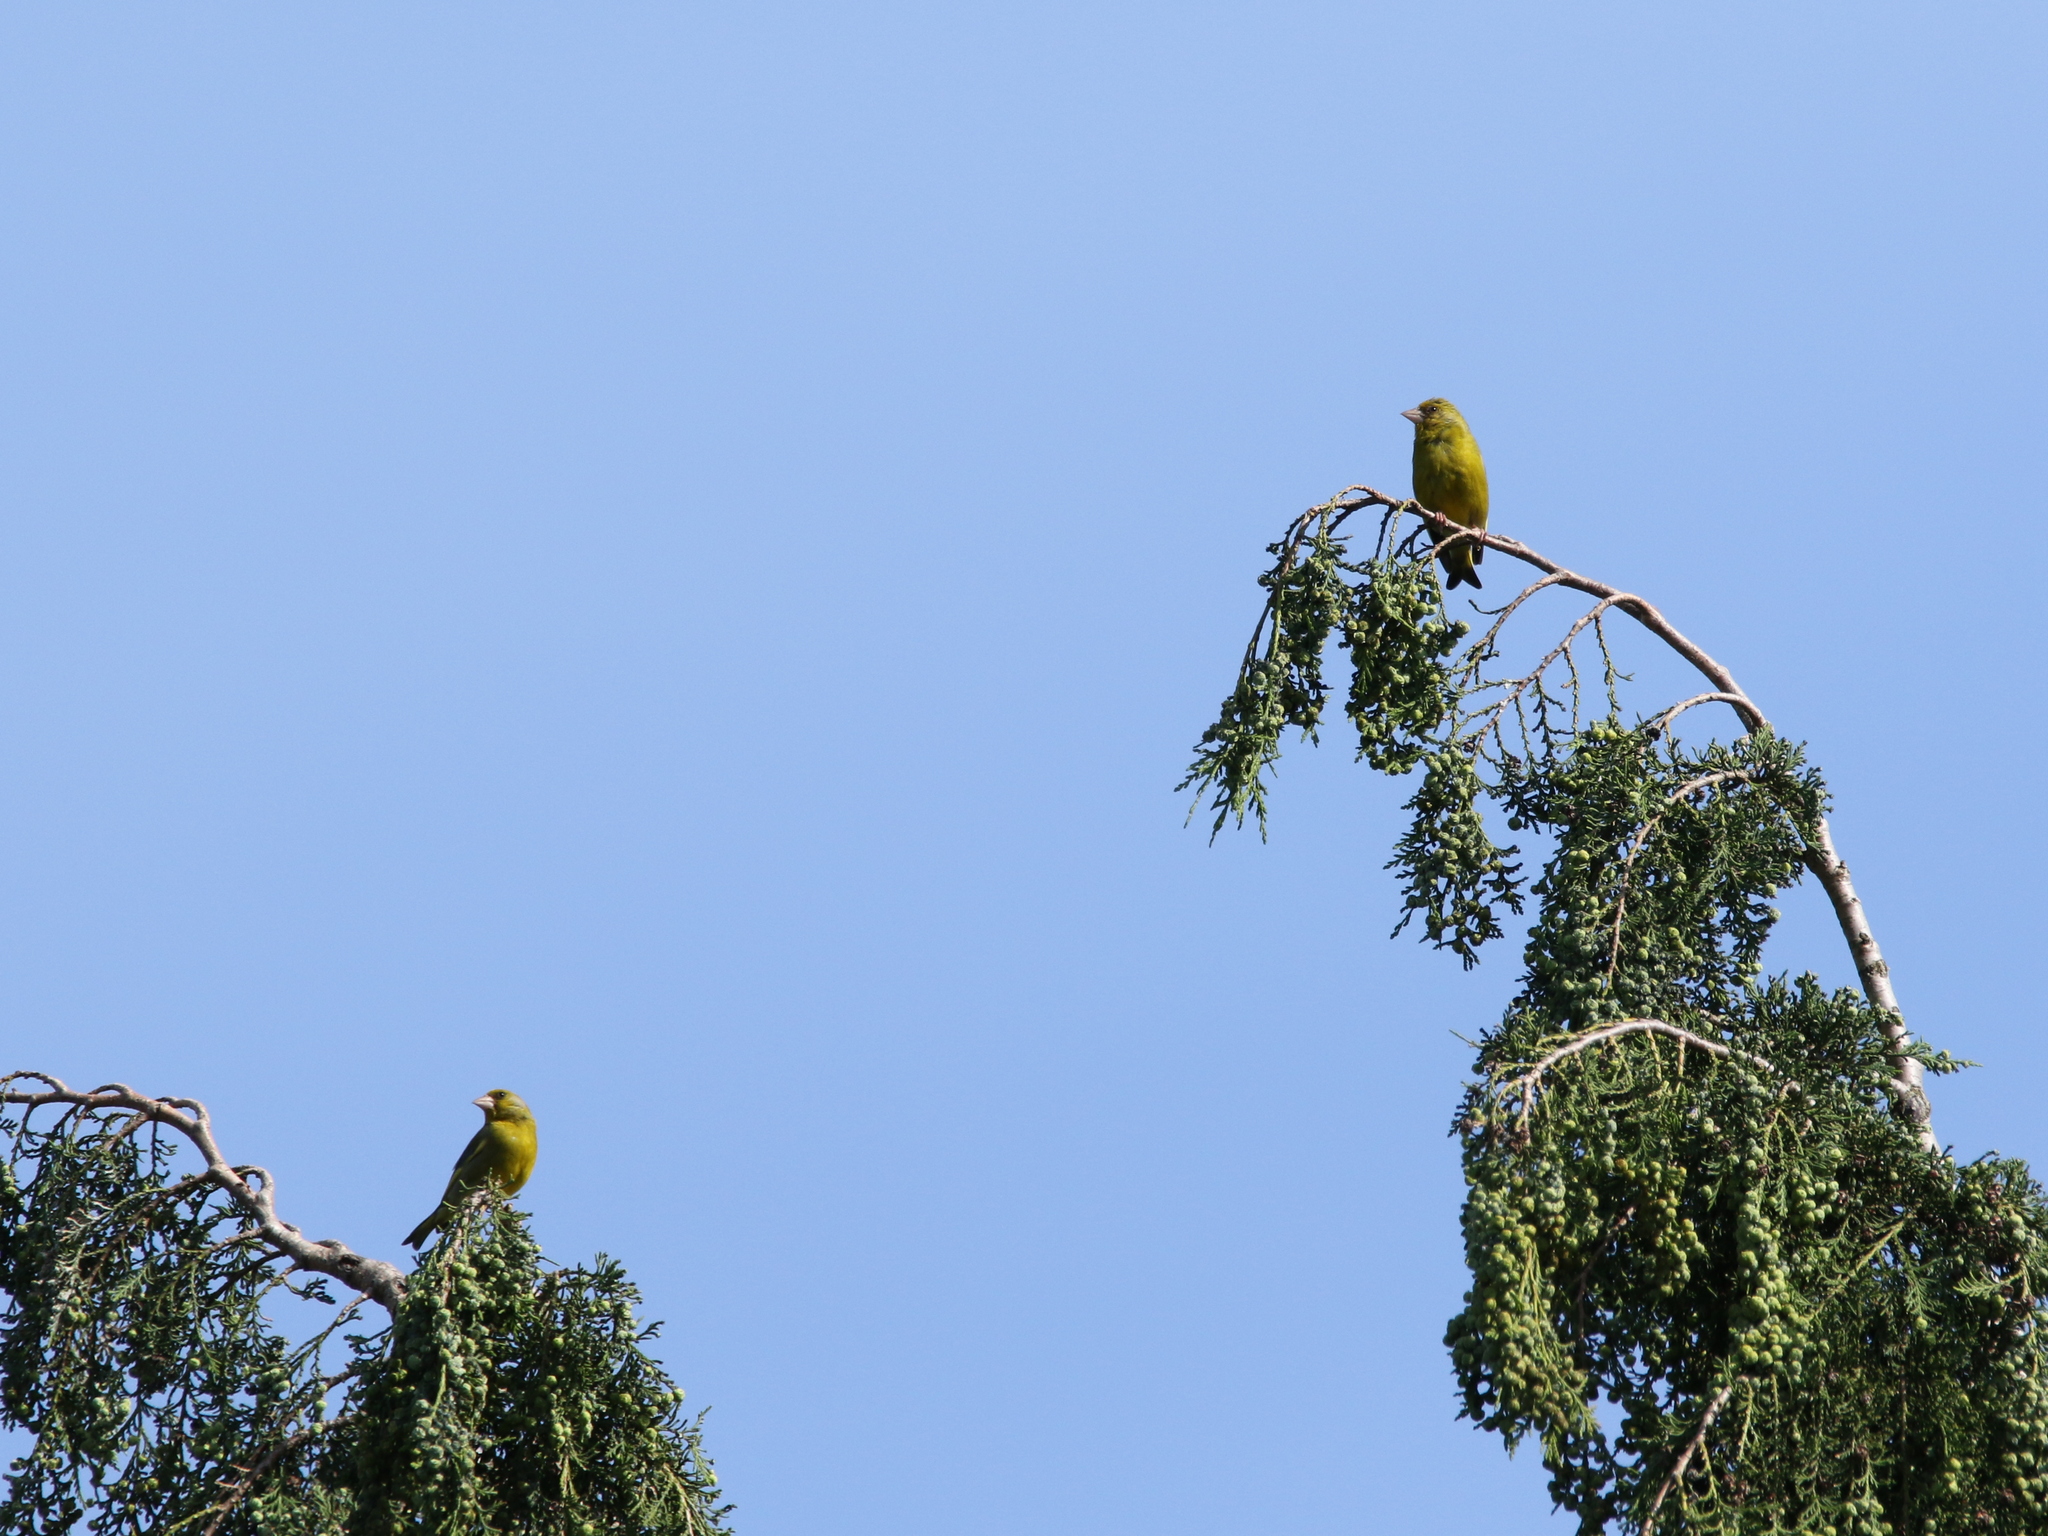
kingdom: Plantae
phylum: Tracheophyta
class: Liliopsida
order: Poales
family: Poaceae
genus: Chloris
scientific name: Chloris chloris
